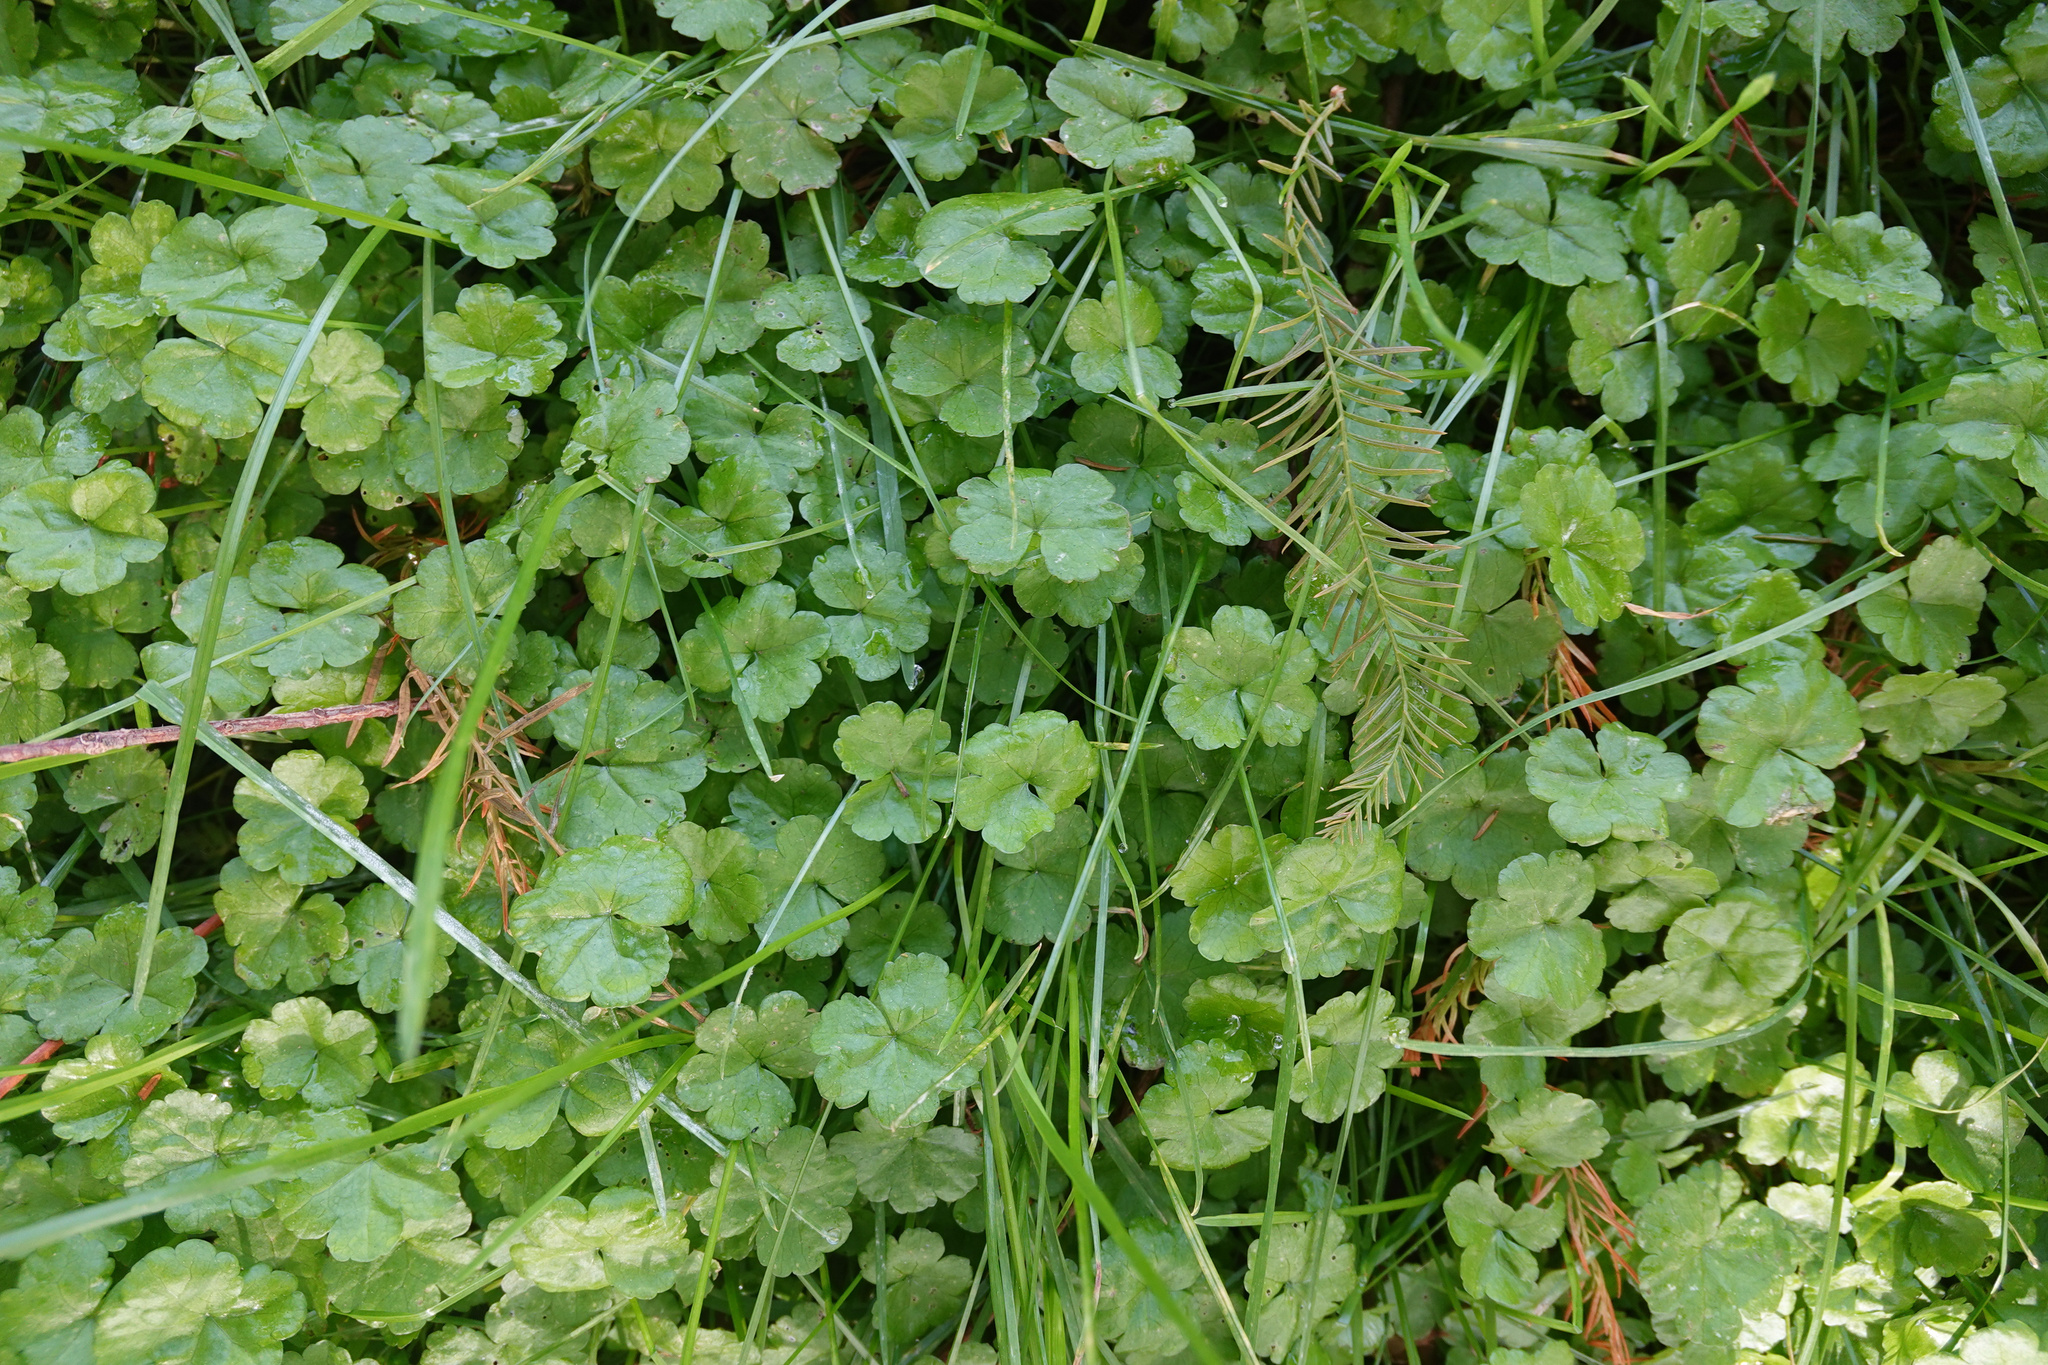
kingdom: Plantae
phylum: Tracheophyta
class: Magnoliopsida
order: Apiales
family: Araliaceae
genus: Hydrocotyle
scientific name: Hydrocotyle heteromeria
